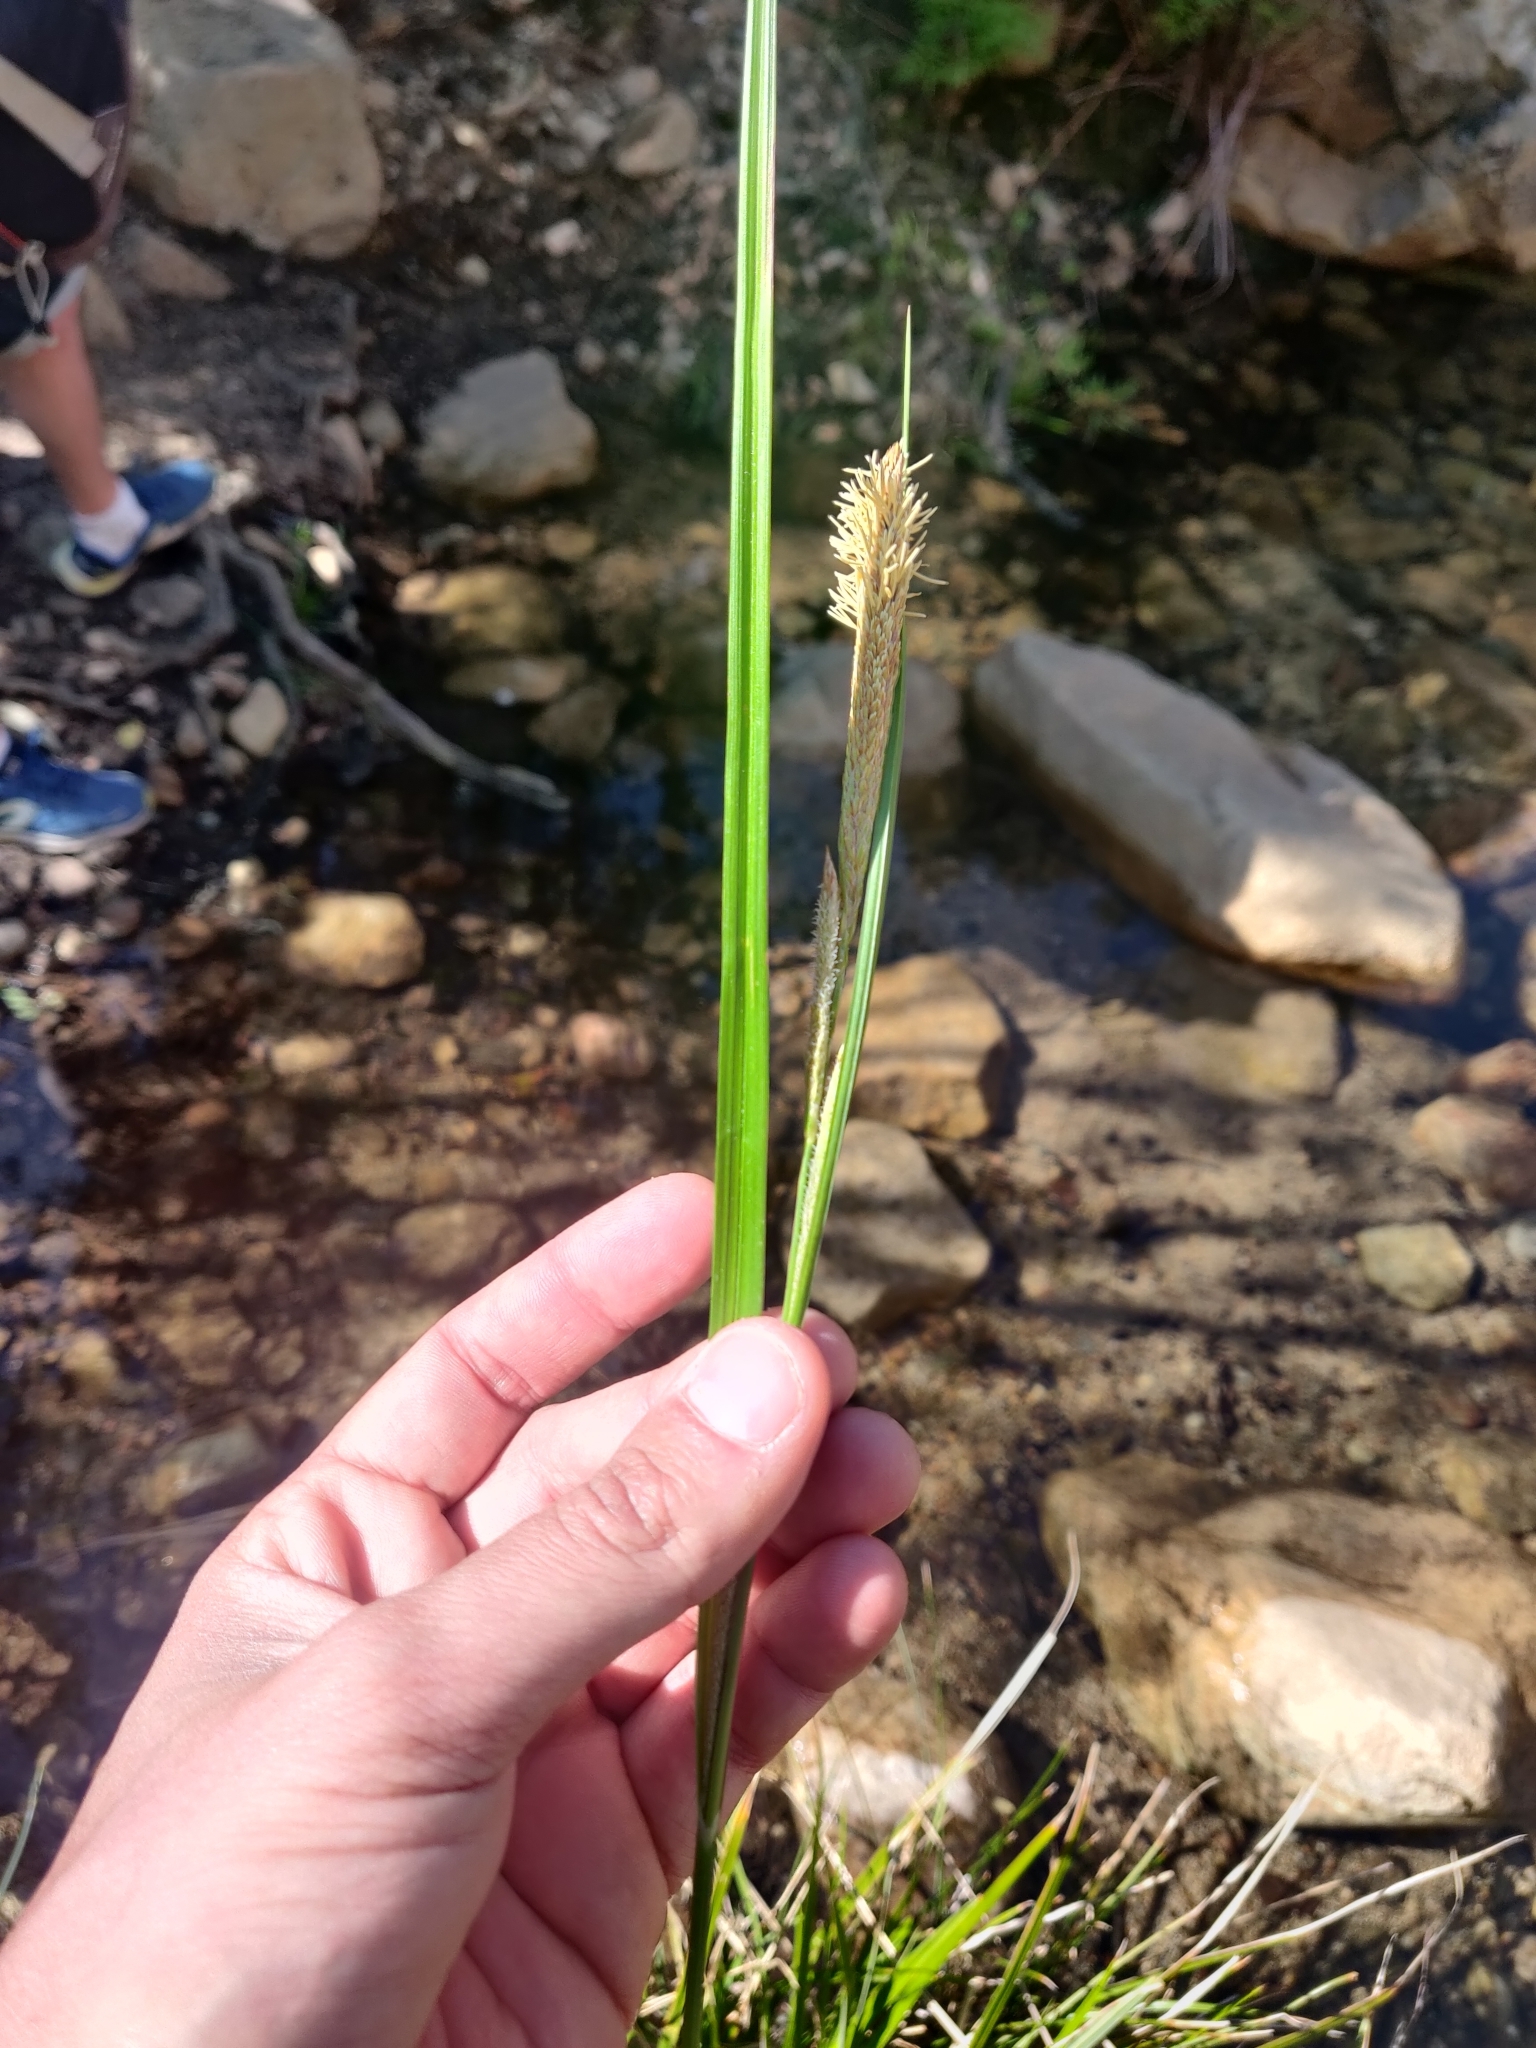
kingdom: Plantae
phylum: Tracheophyta
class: Liliopsida
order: Poales
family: Cyperaceae
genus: Carex
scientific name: Carex microcarpa
